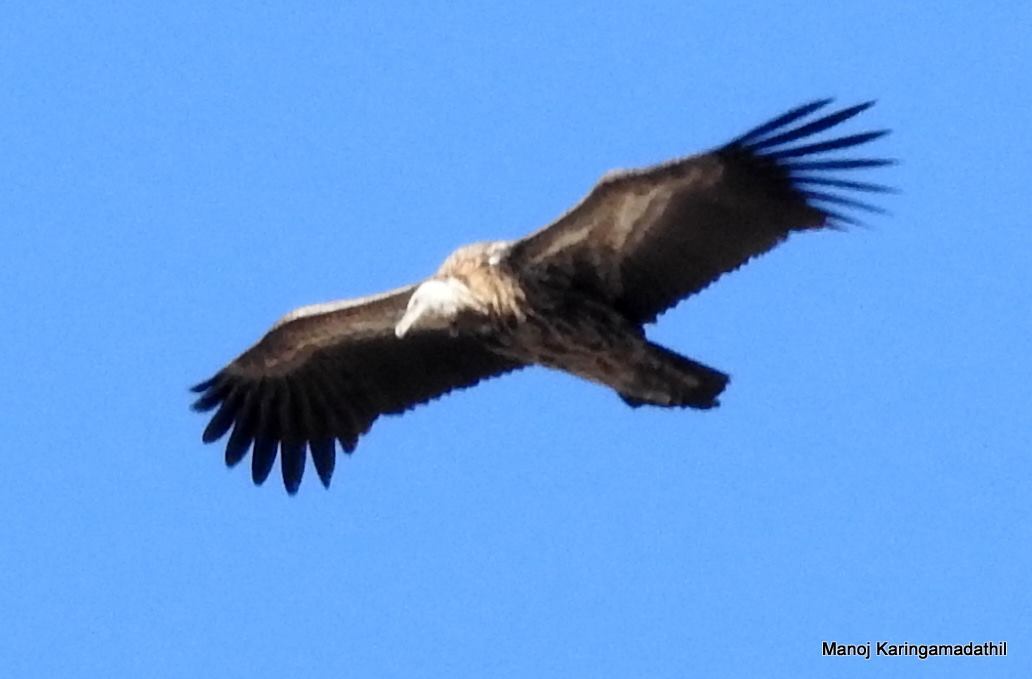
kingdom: Animalia
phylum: Chordata
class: Aves
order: Accipitriformes
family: Accipitridae
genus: Gyps
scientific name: Gyps himalayensis
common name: Himalayan griffon
